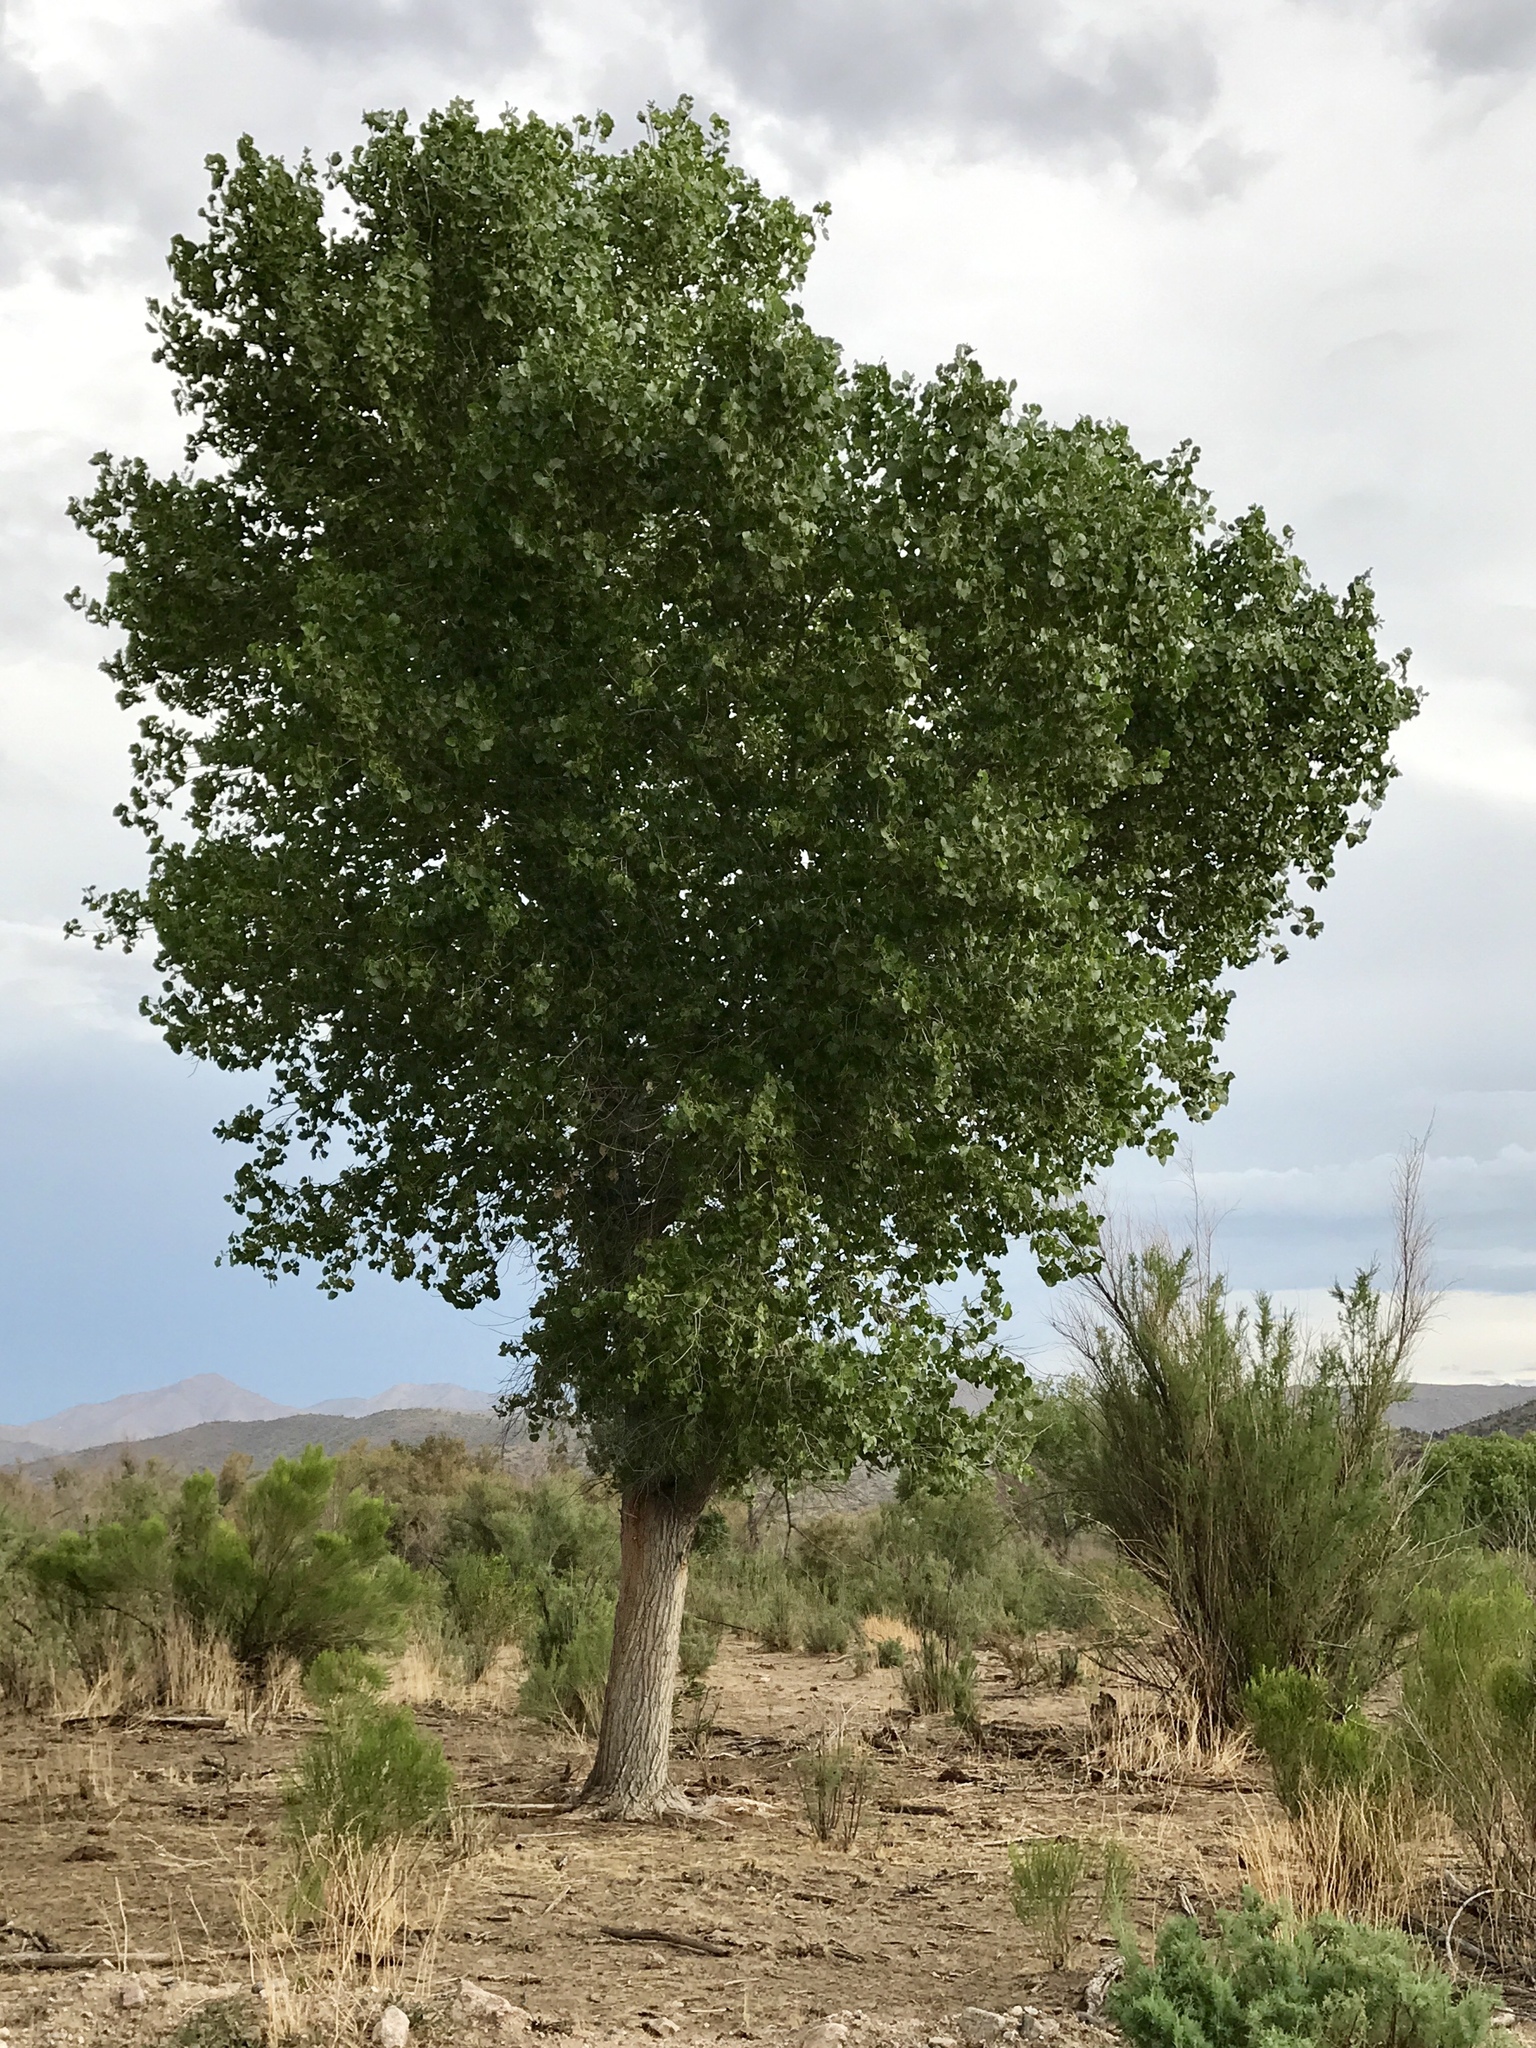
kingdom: Plantae
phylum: Tracheophyta
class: Magnoliopsida
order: Malpighiales
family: Salicaceae
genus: Populus
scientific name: Populus fremontii
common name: Fremont's cottonwood
